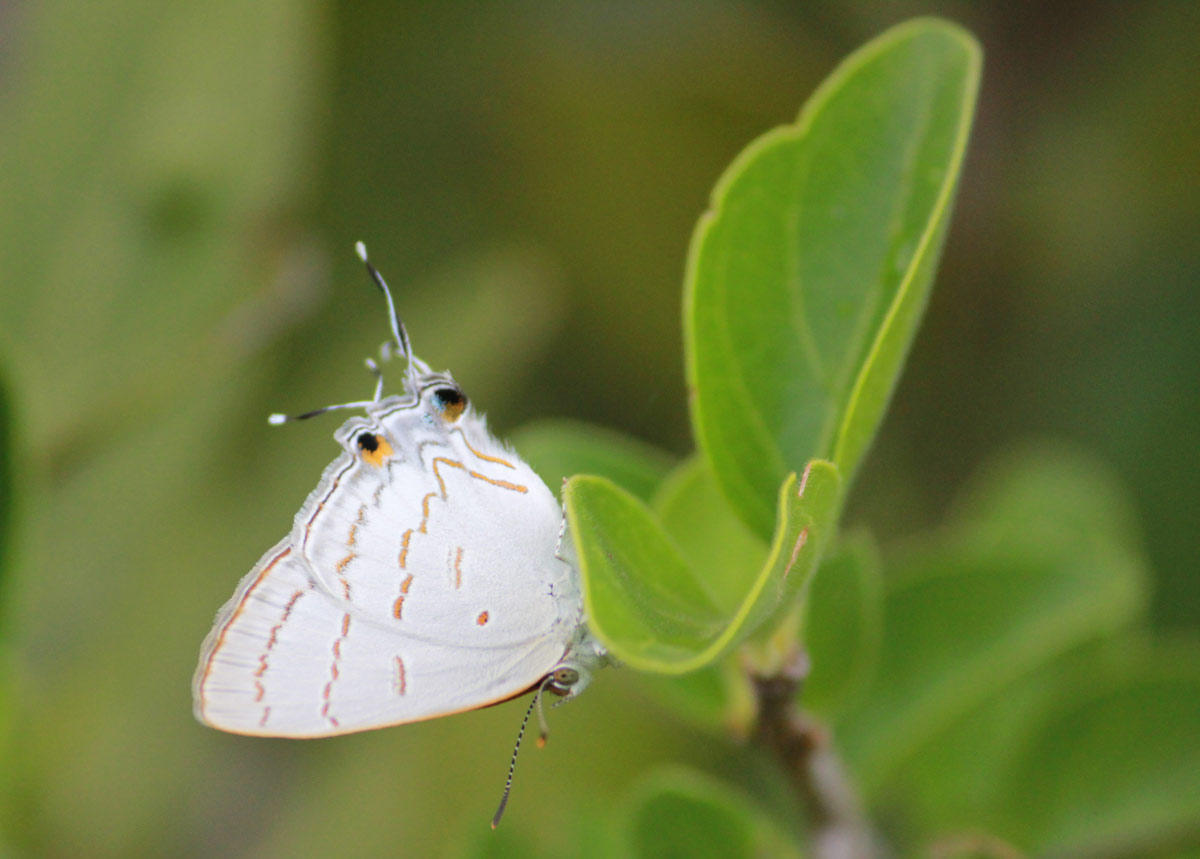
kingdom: Animalia
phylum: Arthropoda
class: Insecta
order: Lepidoptera
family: Lycaenidae
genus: Hypolycaena
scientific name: Hypolycaena philippus
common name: Common hairstreak
